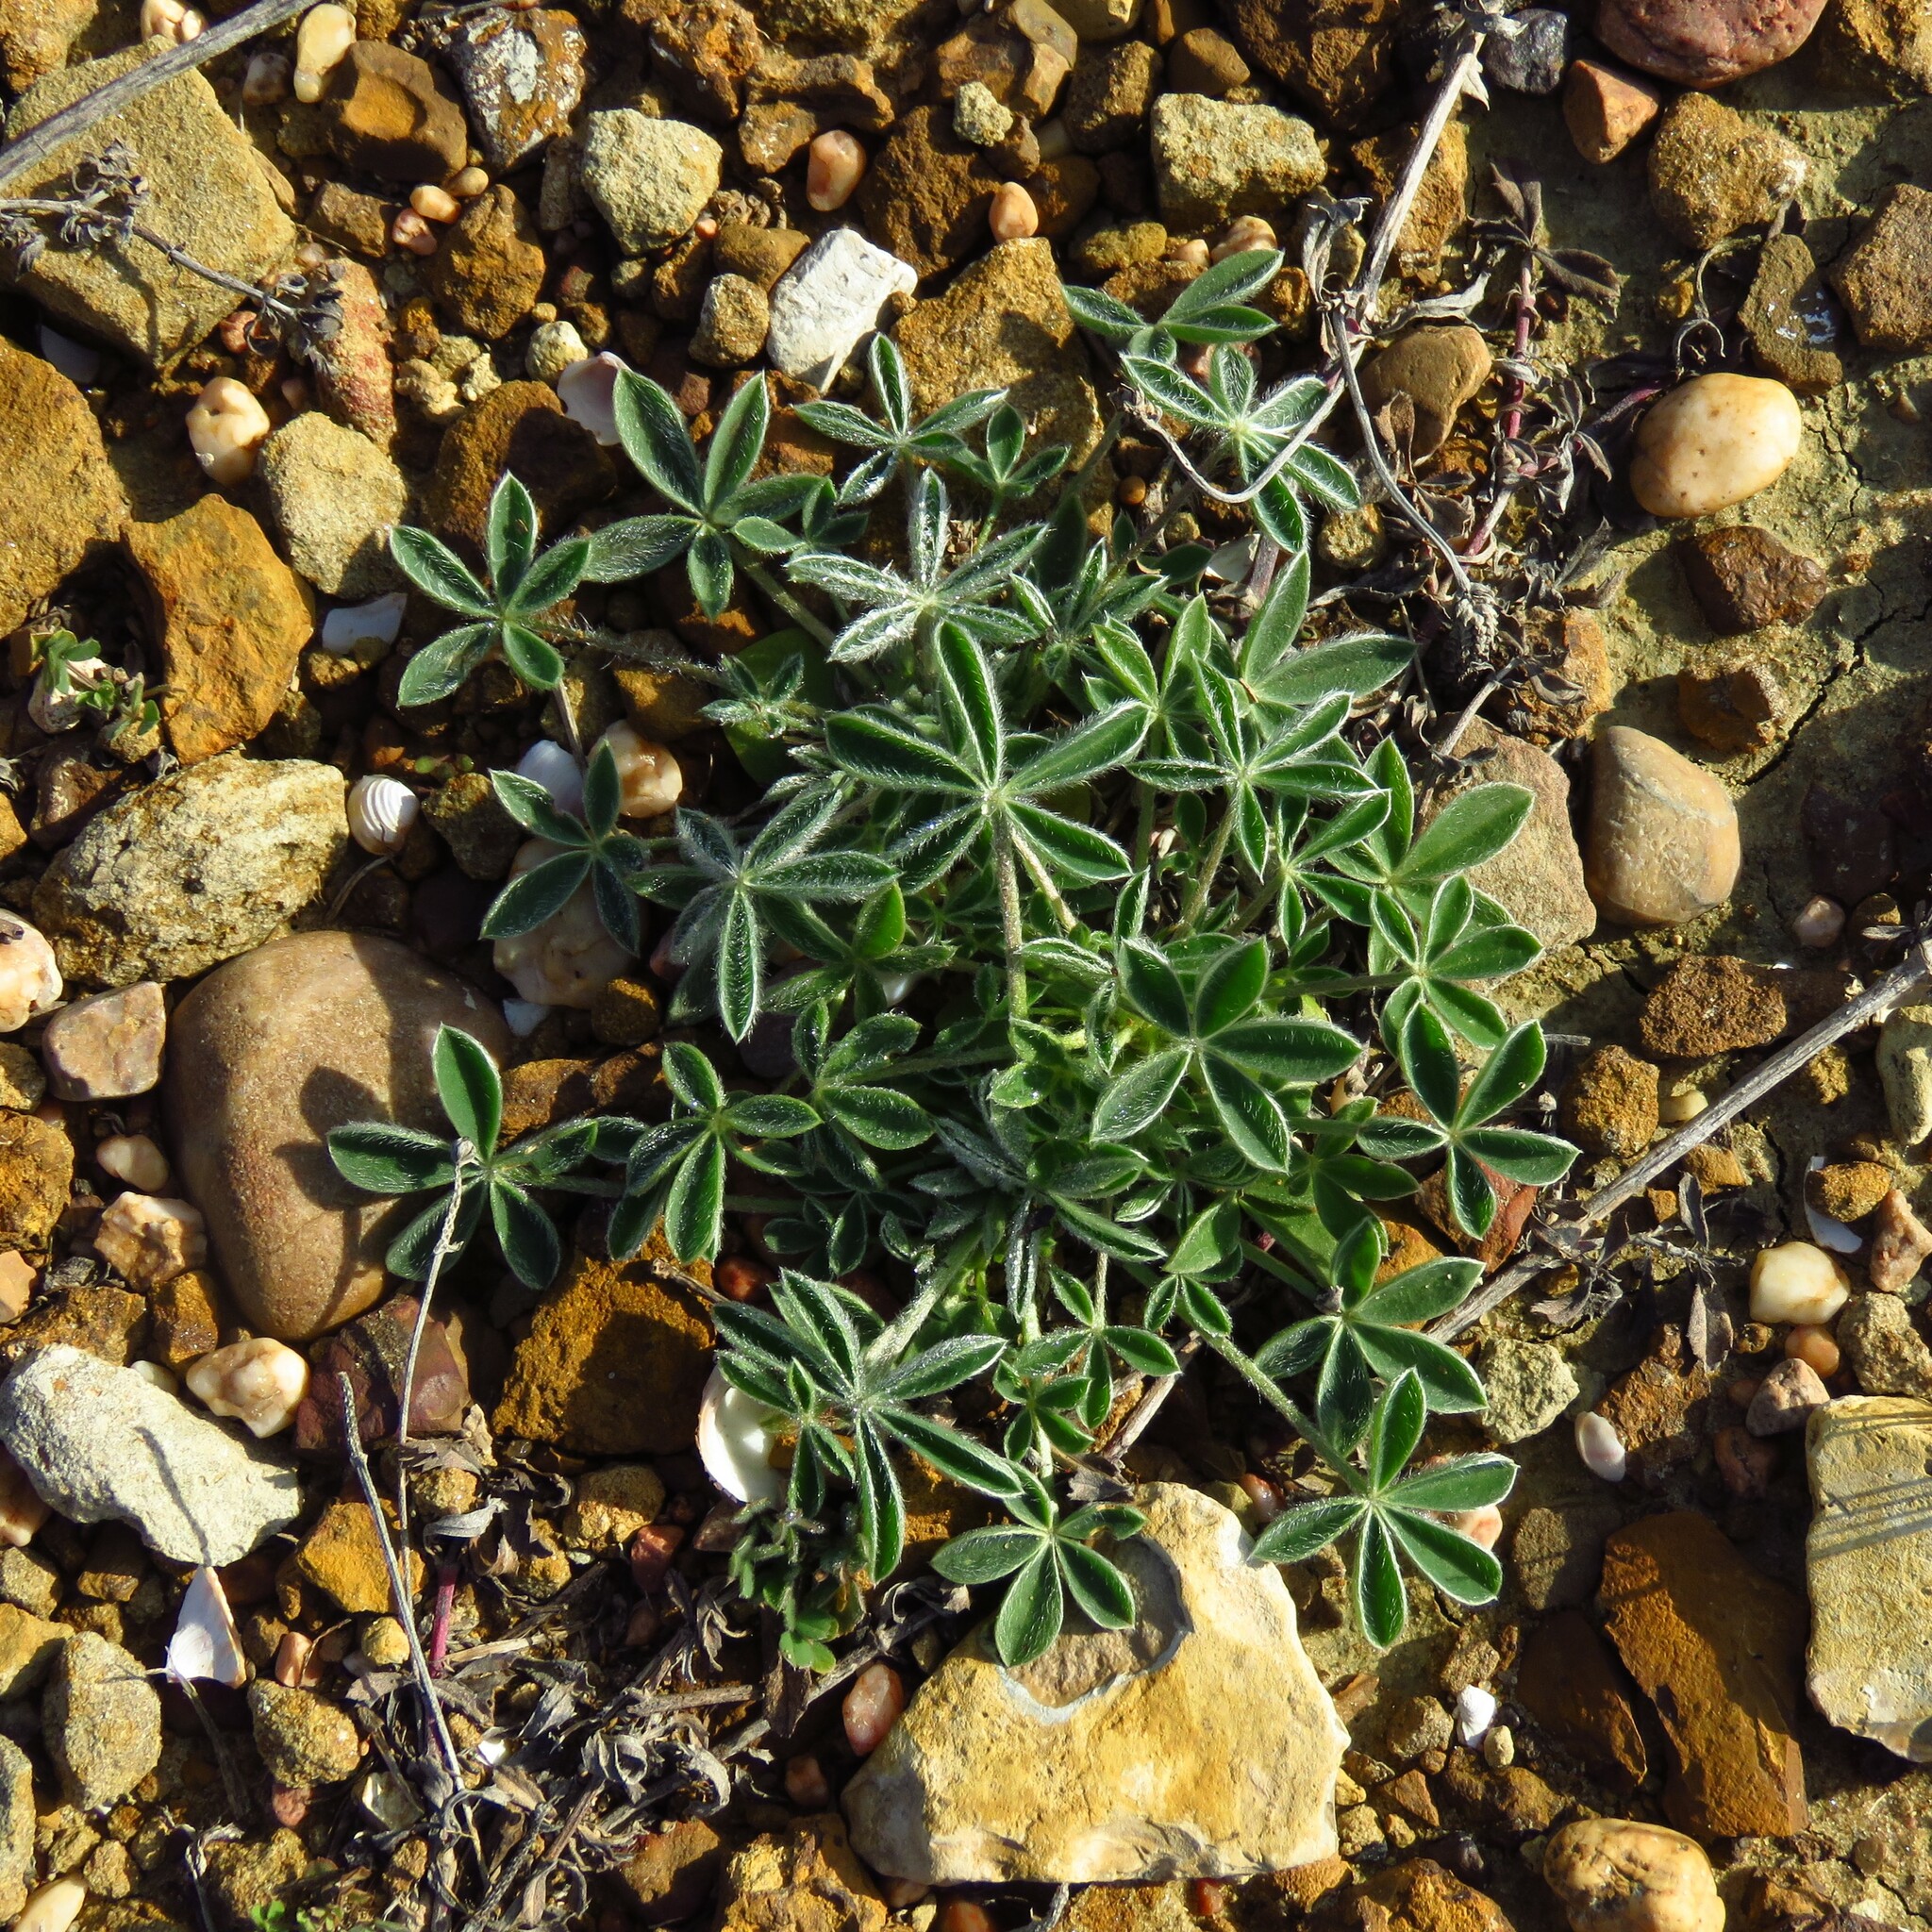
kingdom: Plantae
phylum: Tracheophyta
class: Magnoliopsida
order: Fabales
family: Fabaceae
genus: Lupinus
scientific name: Lupinus texensis
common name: Texas bluebonnet
